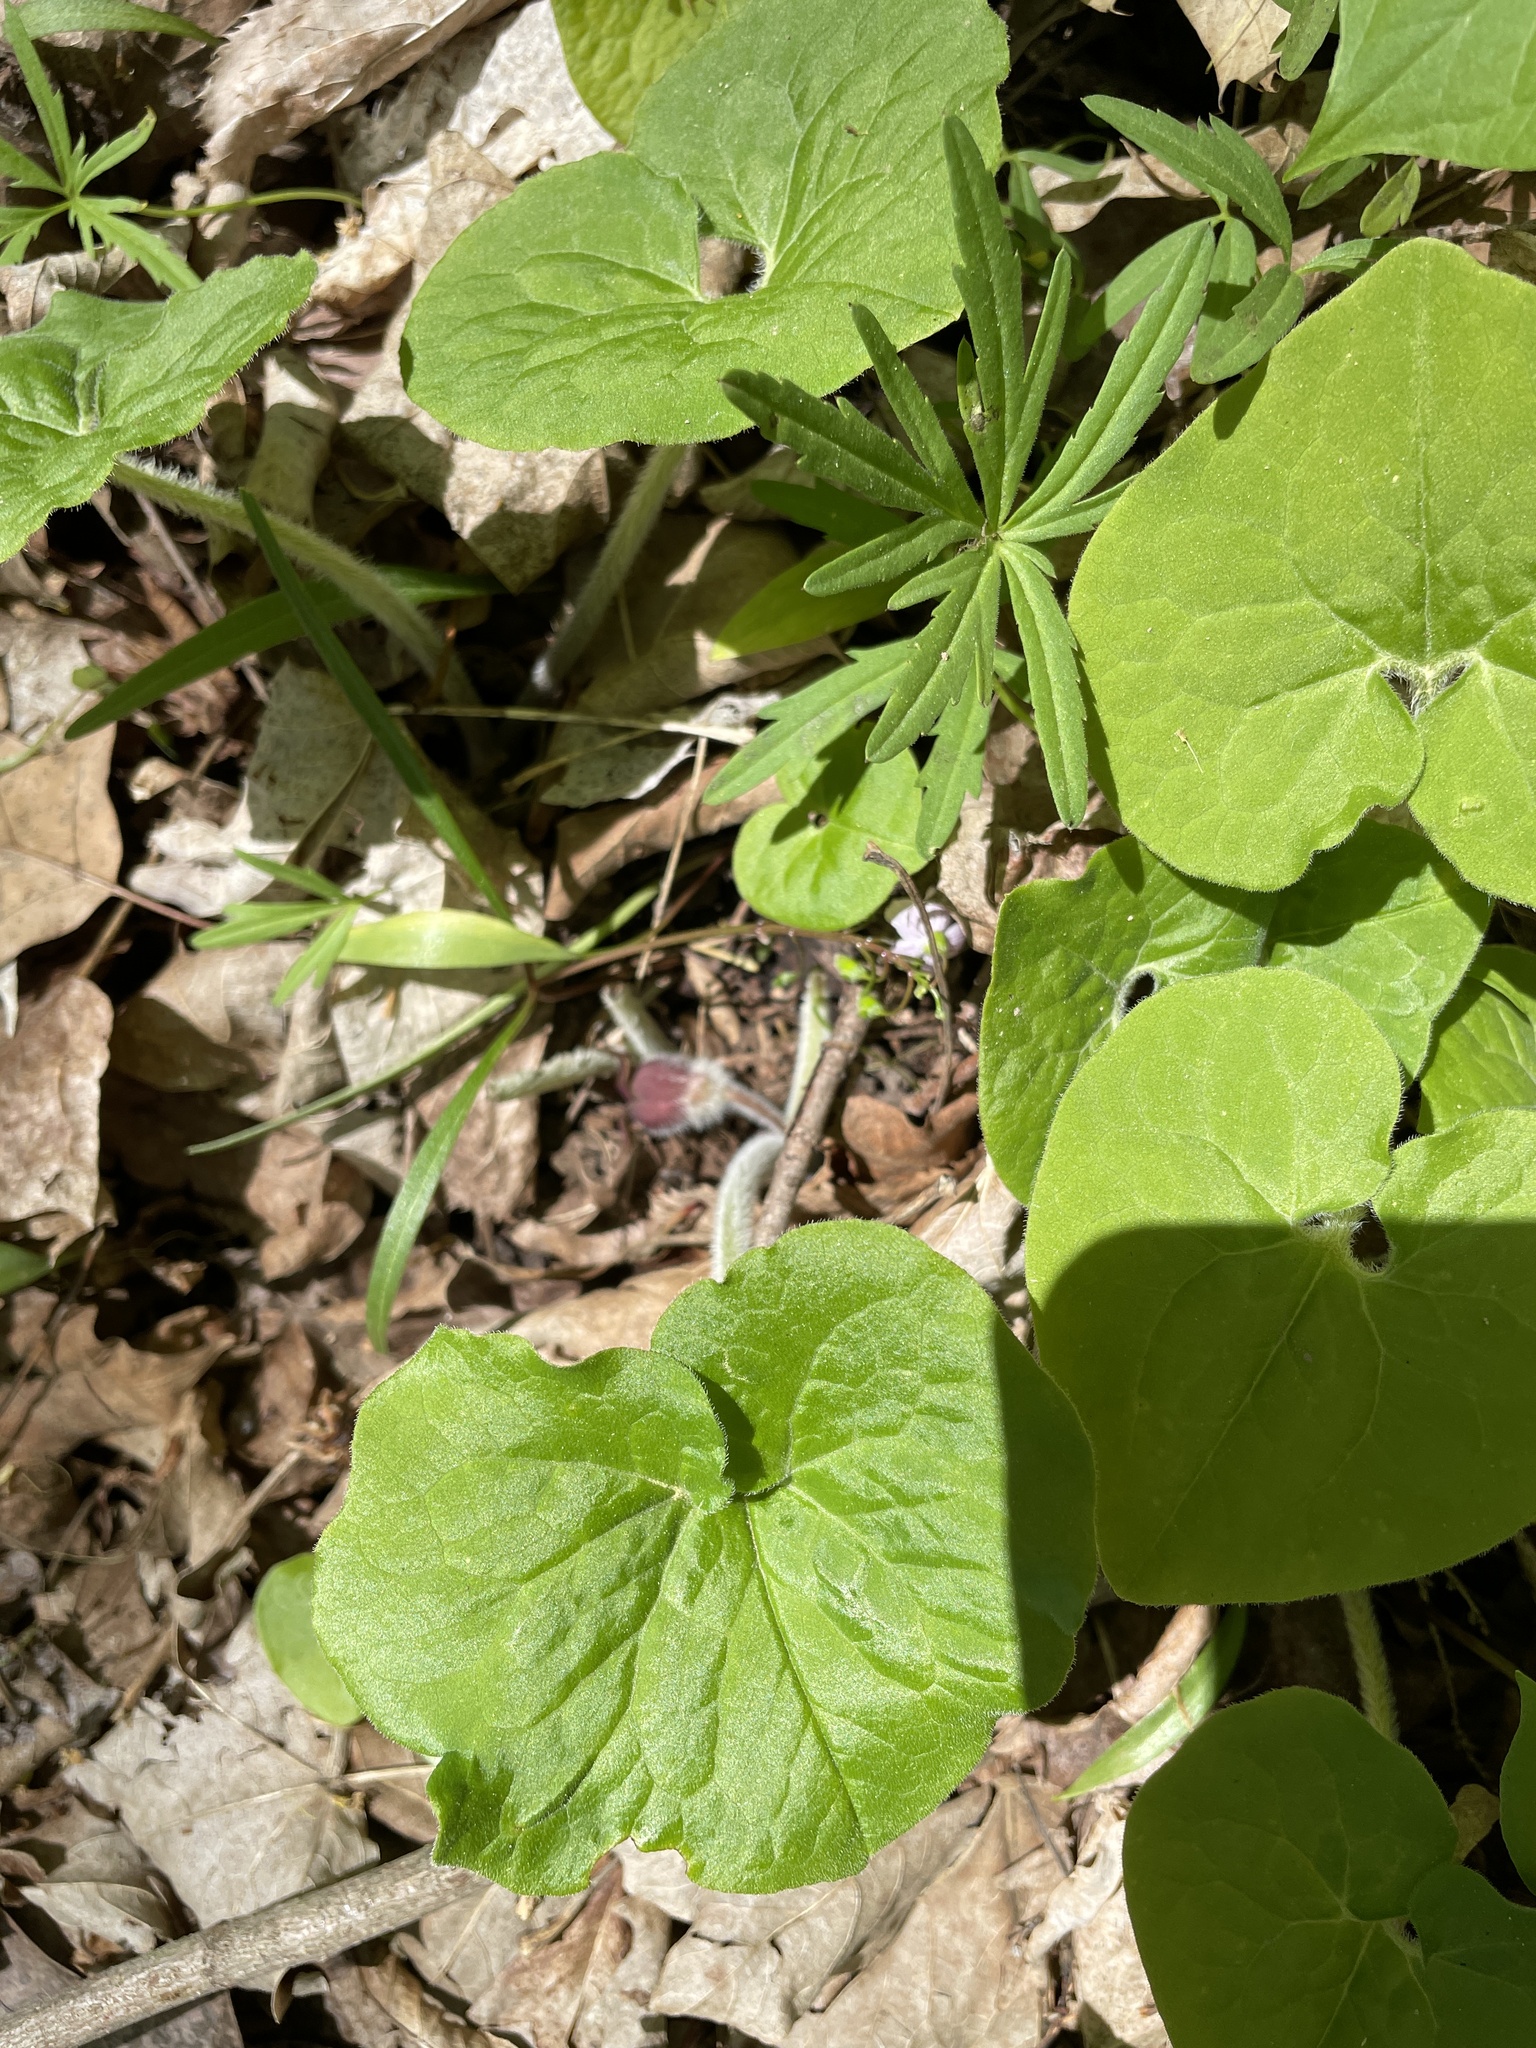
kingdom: Plantae
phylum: Tracheophyta
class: Magnoliopsida
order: Piperales
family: Aristolochiaceae
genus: Asarum
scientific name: Asarum canadense
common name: Wild ginger
